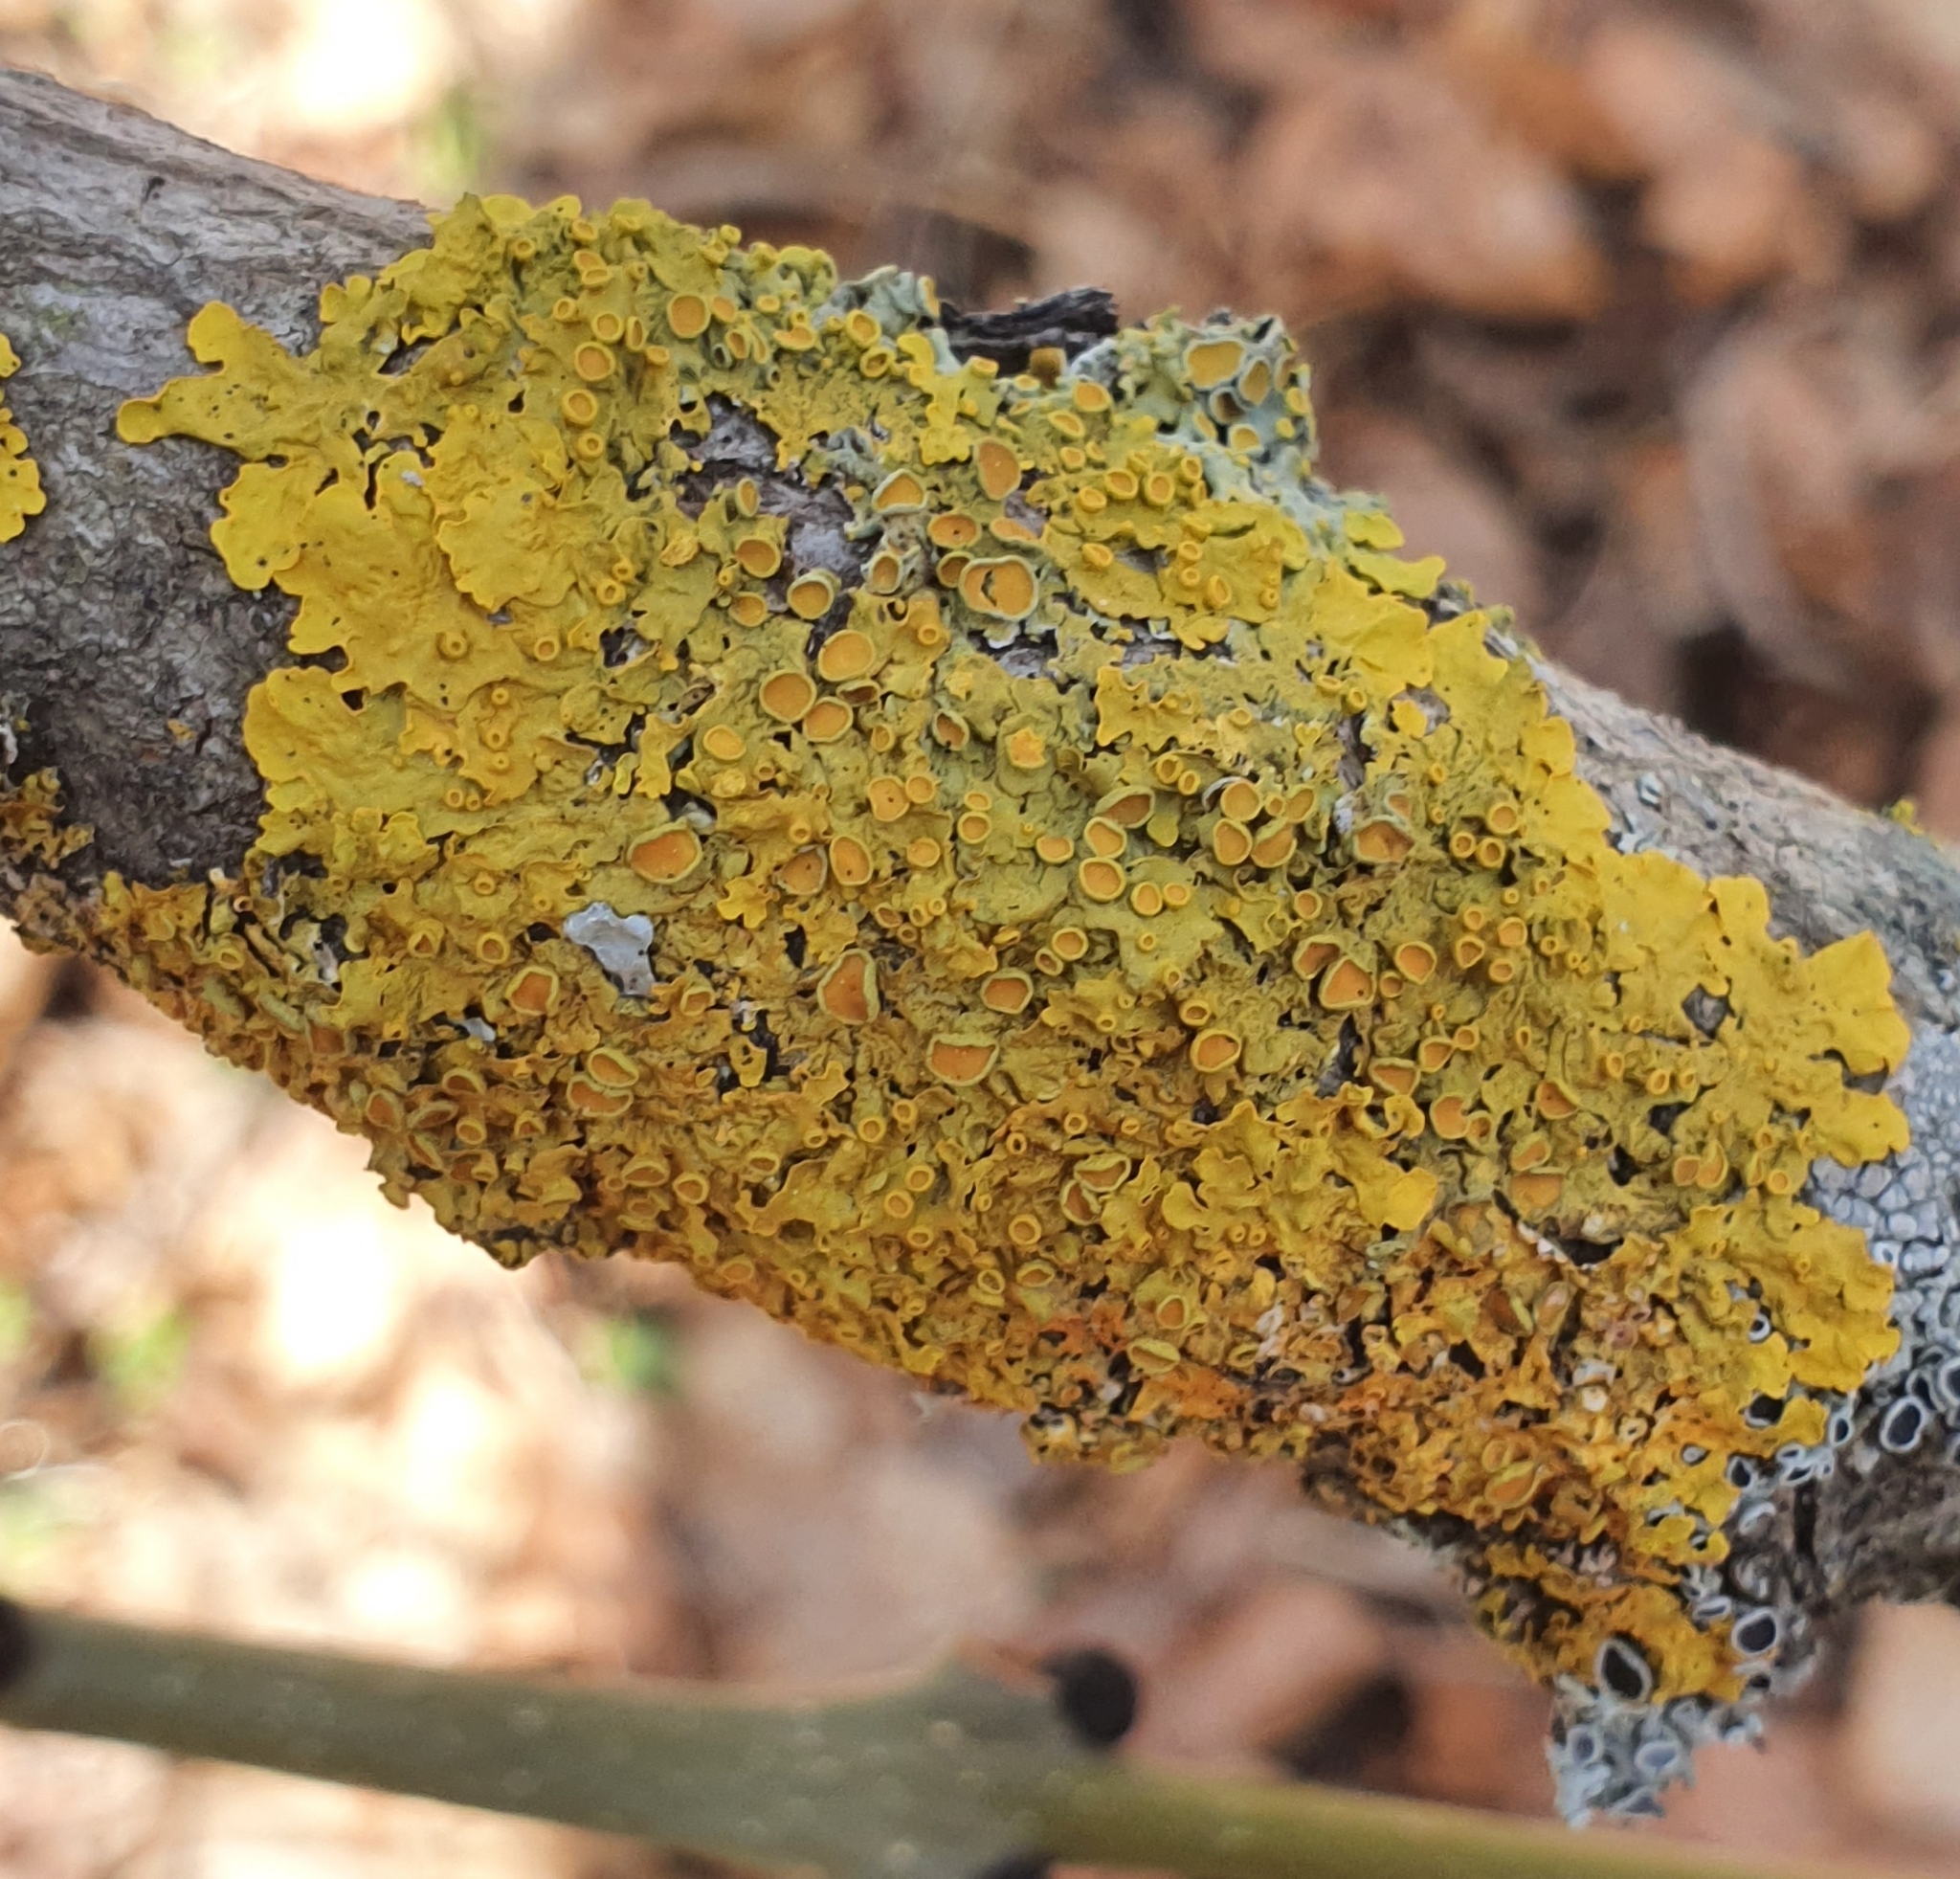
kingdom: Fungi
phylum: Ascomycota
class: Lecanoromycetes
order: Teloschistales
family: Teloschistaceae
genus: Xanthoria
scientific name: Xanthoria parietina
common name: Common orange lichen
